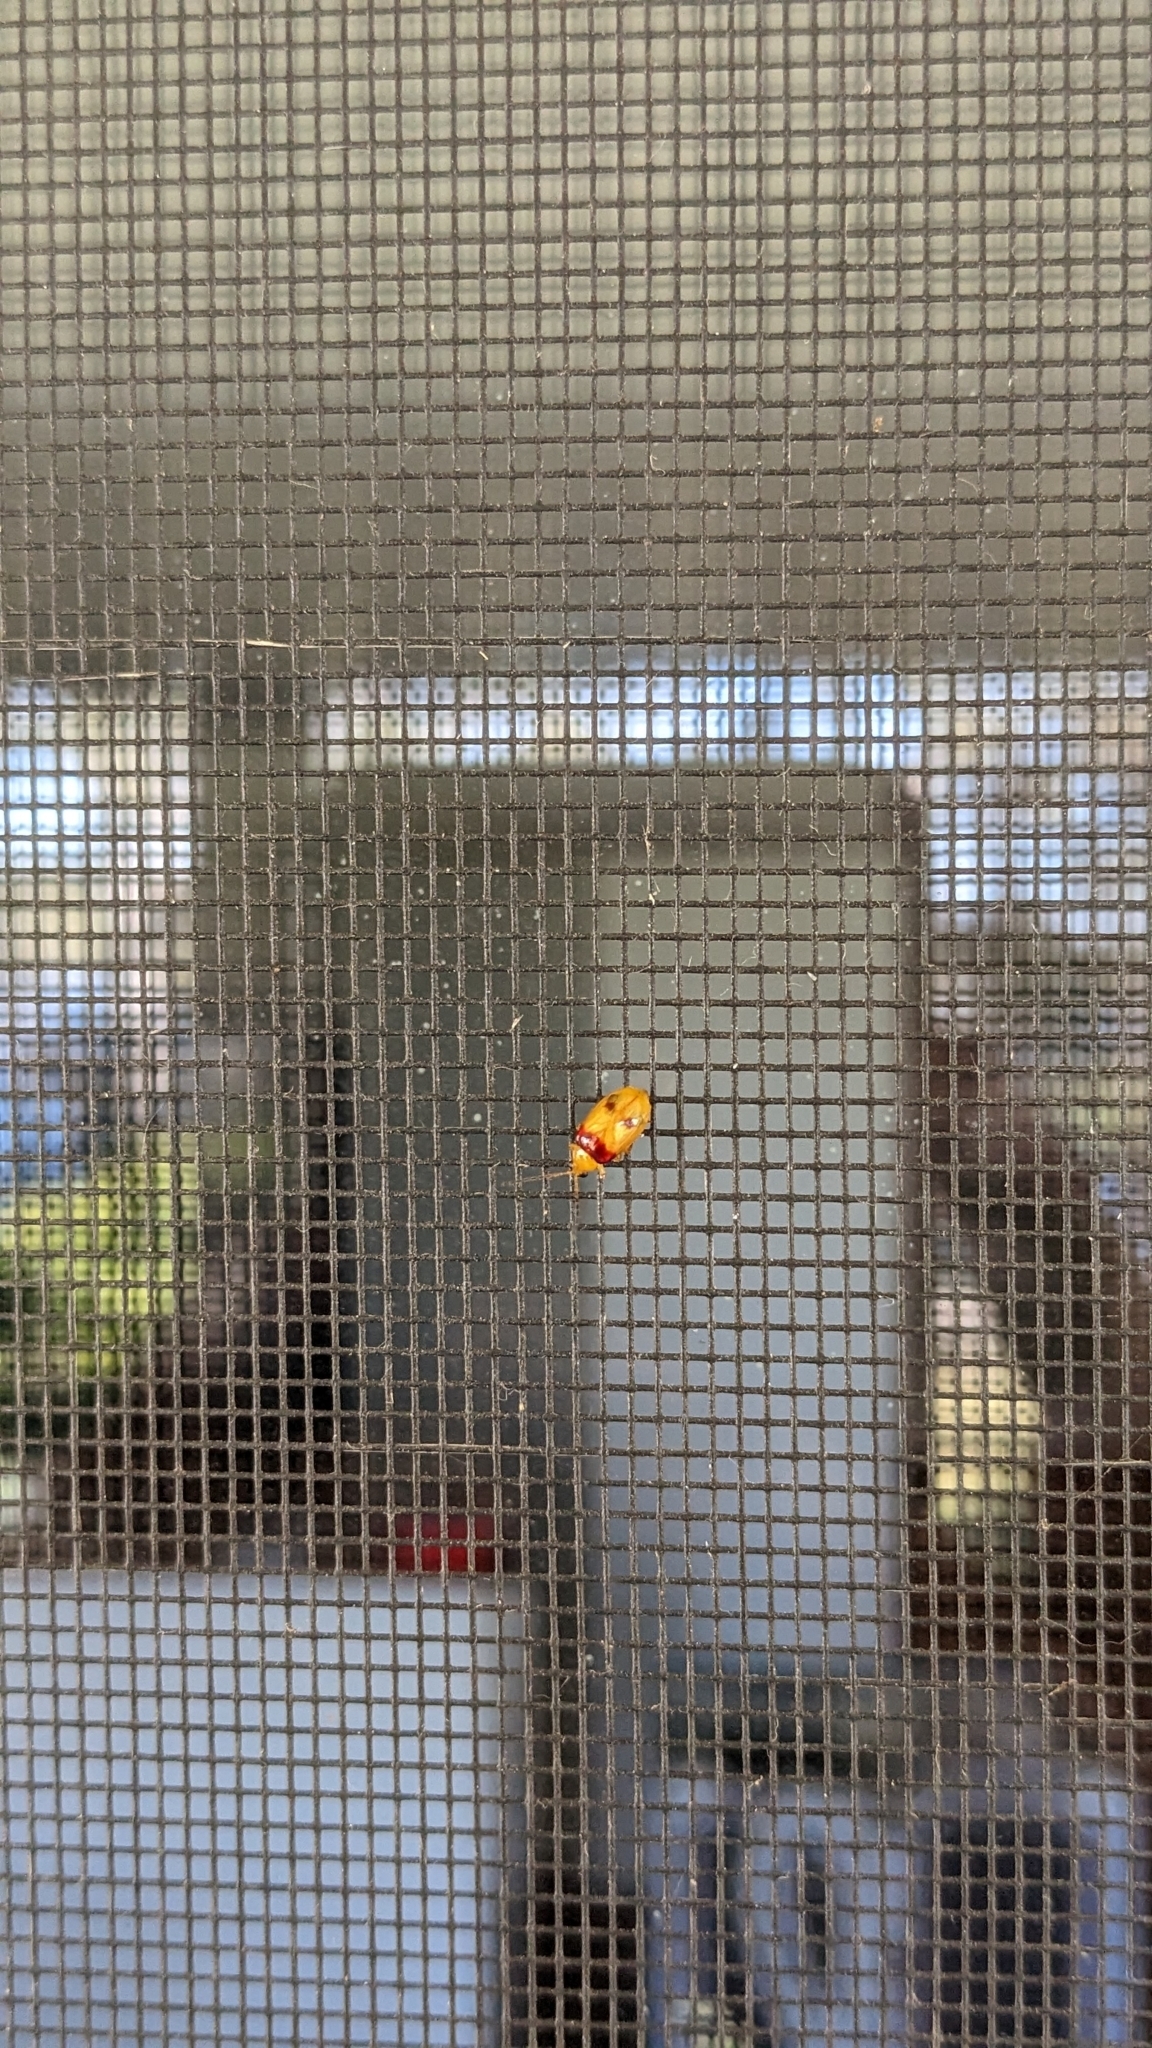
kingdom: Animalia
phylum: Arthropoda
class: Insecta
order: Coleoptera
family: Chrysomelidae
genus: Monolepta
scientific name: Monolepta
